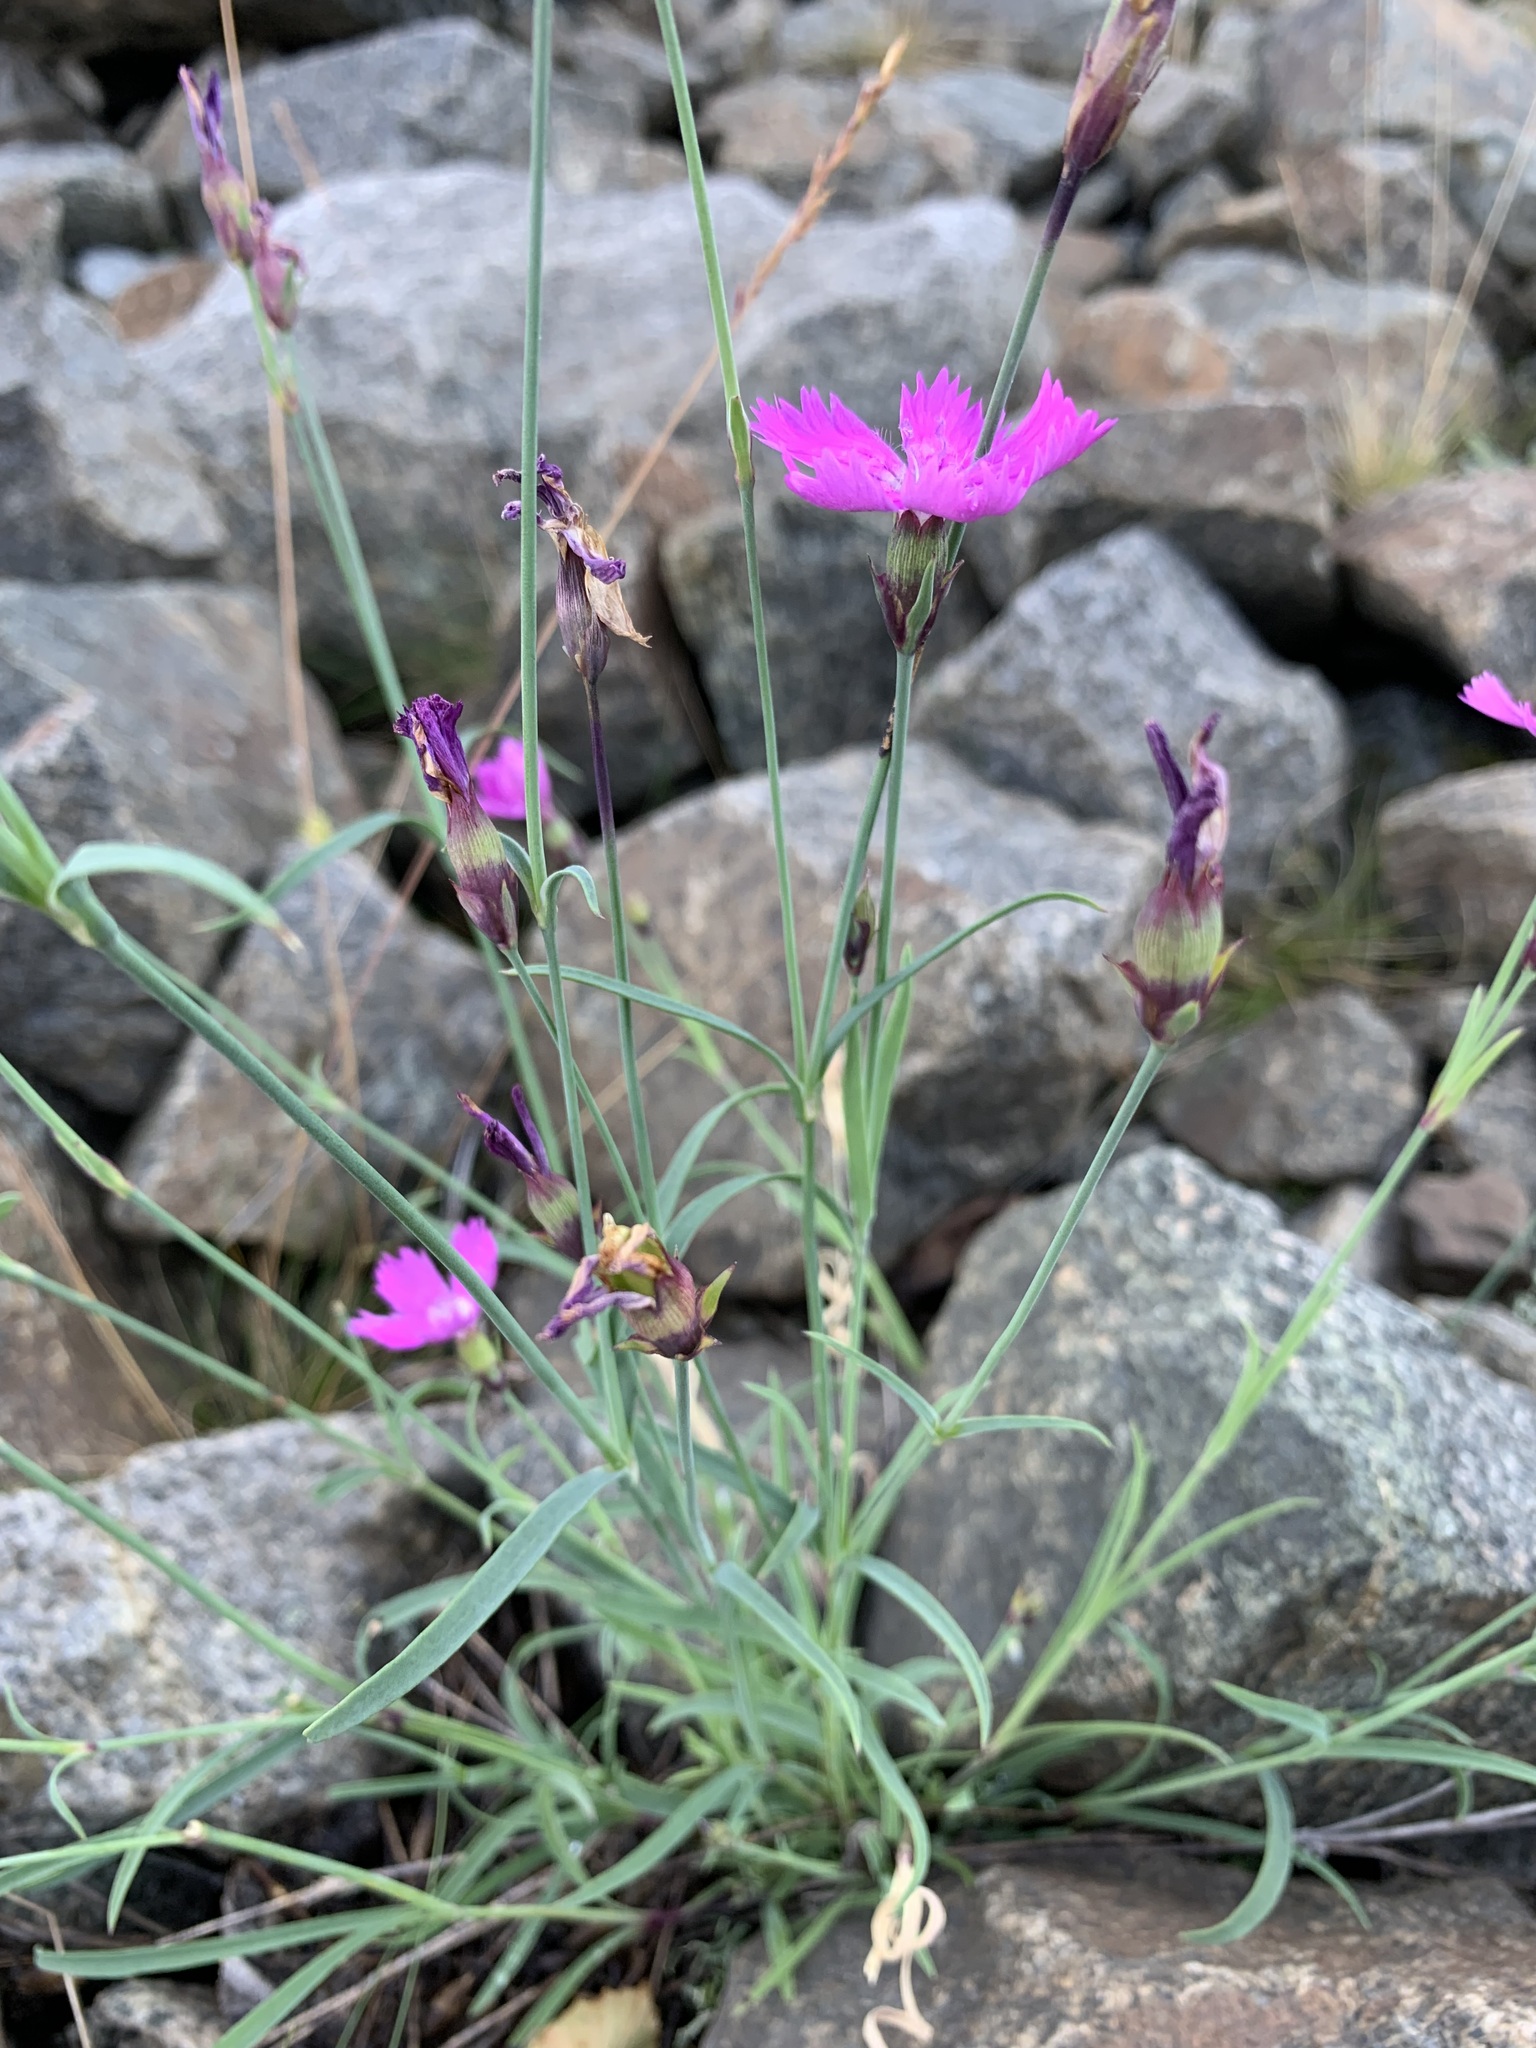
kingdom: Plantae
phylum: Tracheophyta
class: Magnoliopsida
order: Caryophyllales
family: Caryophyllaceae
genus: Dianthus
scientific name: Dianthus repens
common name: Northern pink
